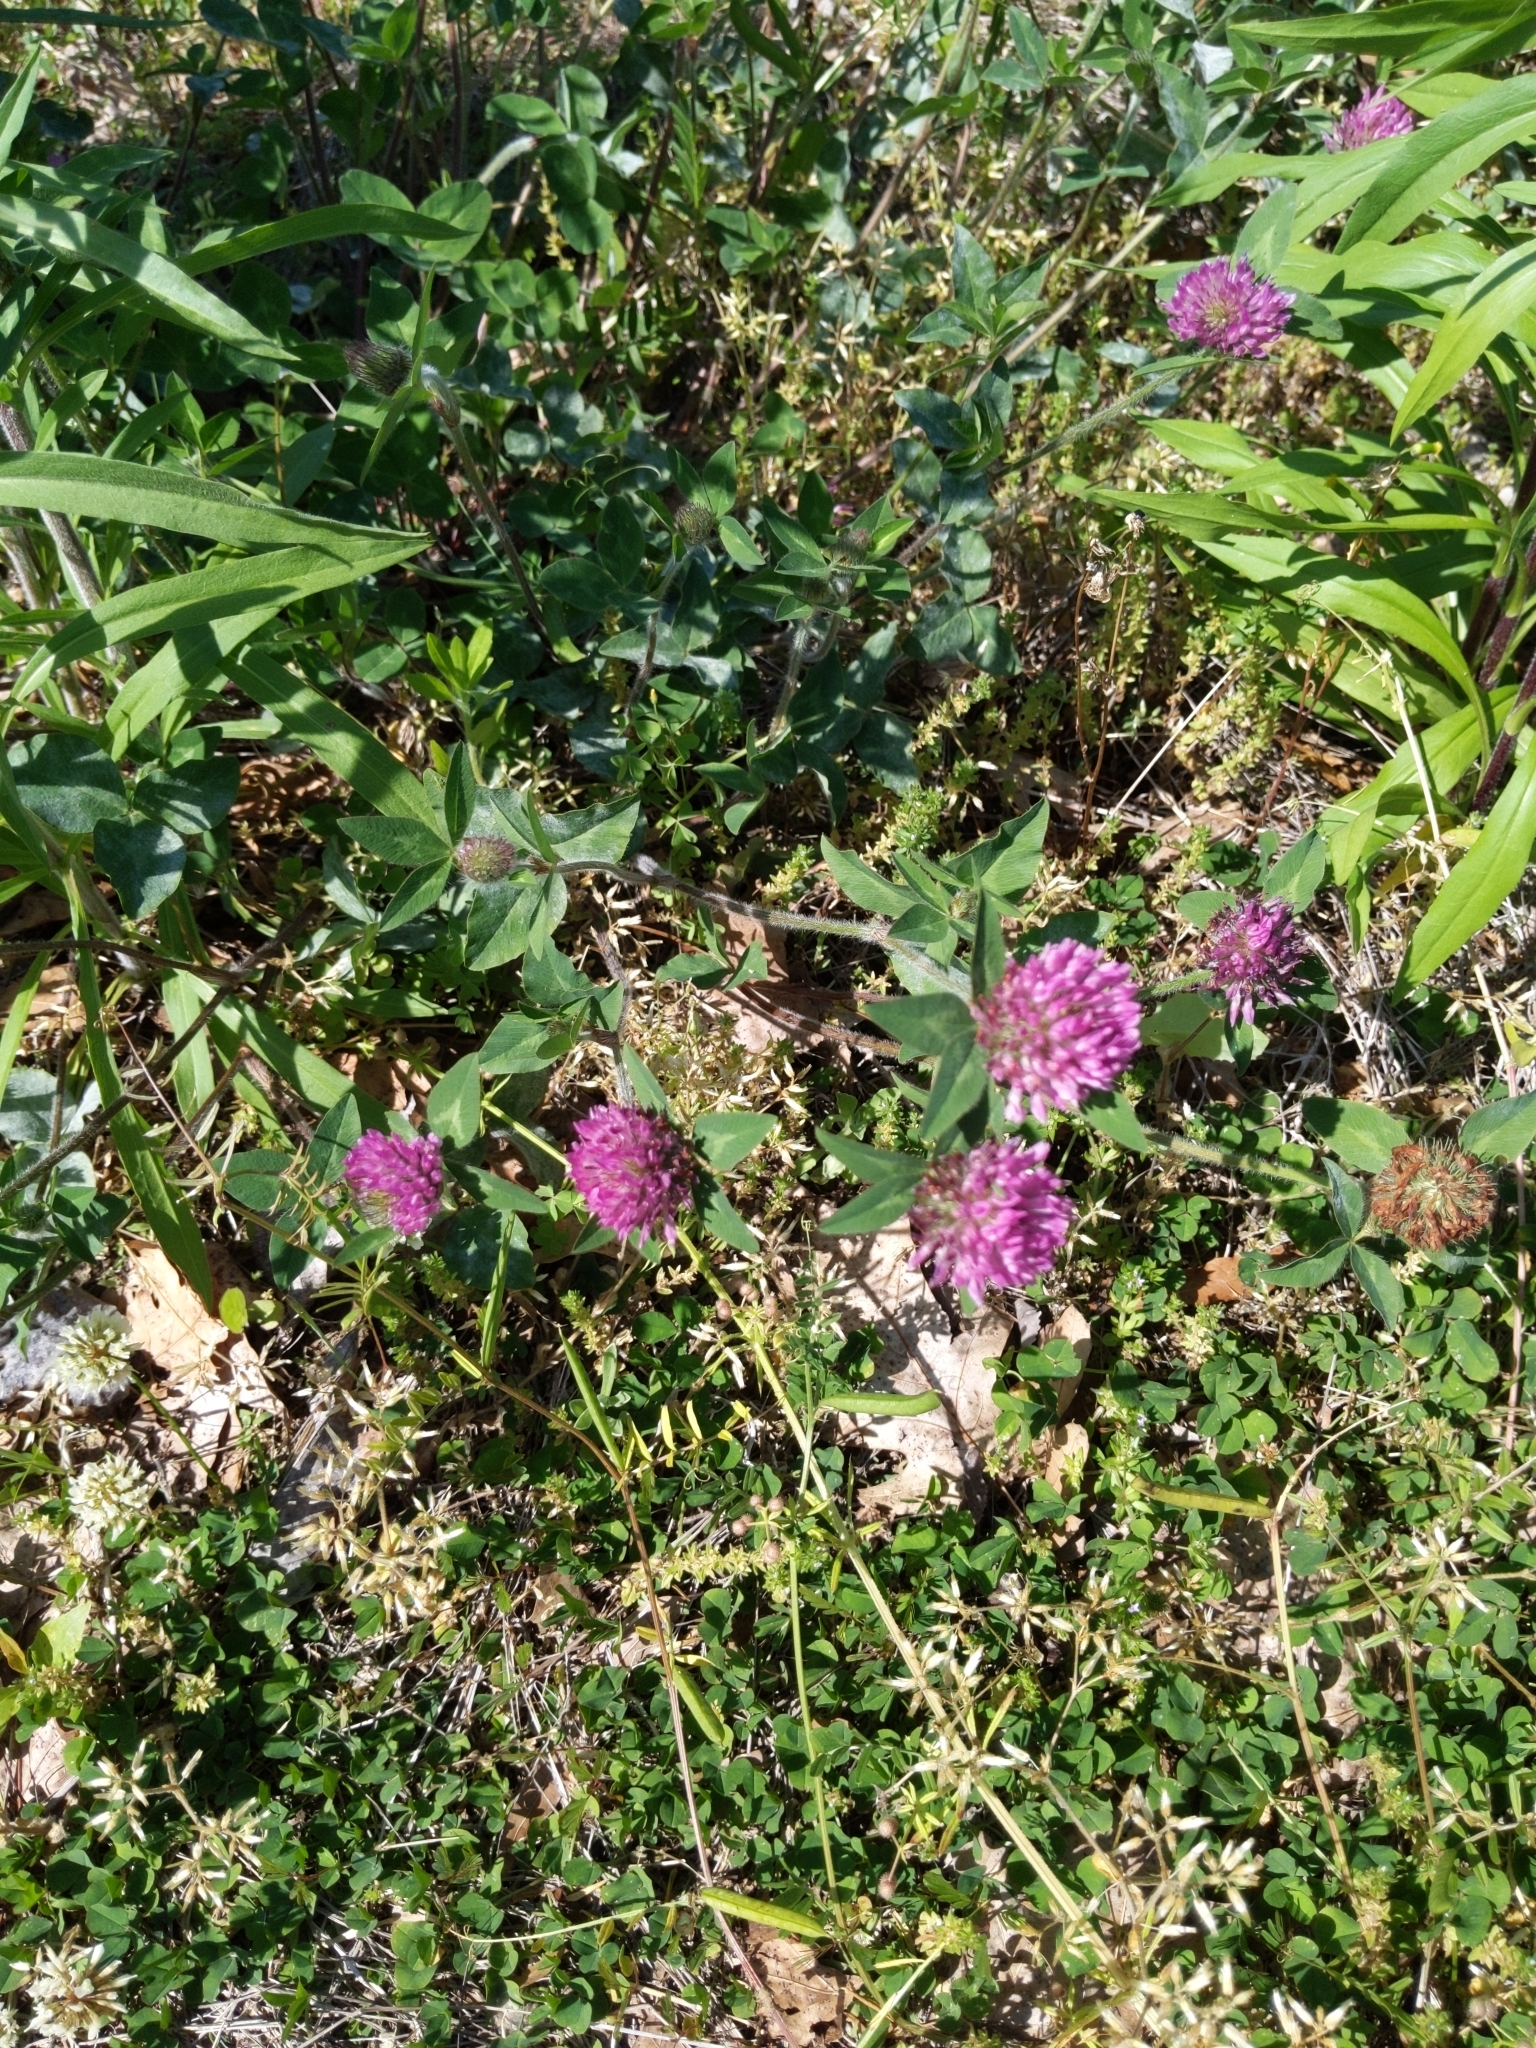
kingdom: Plantae
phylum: Tracheophyta
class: Magnoliopsida
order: Fabales
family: Fabaceae
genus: Trifolium
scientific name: Trifolium pratense
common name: Red clover
